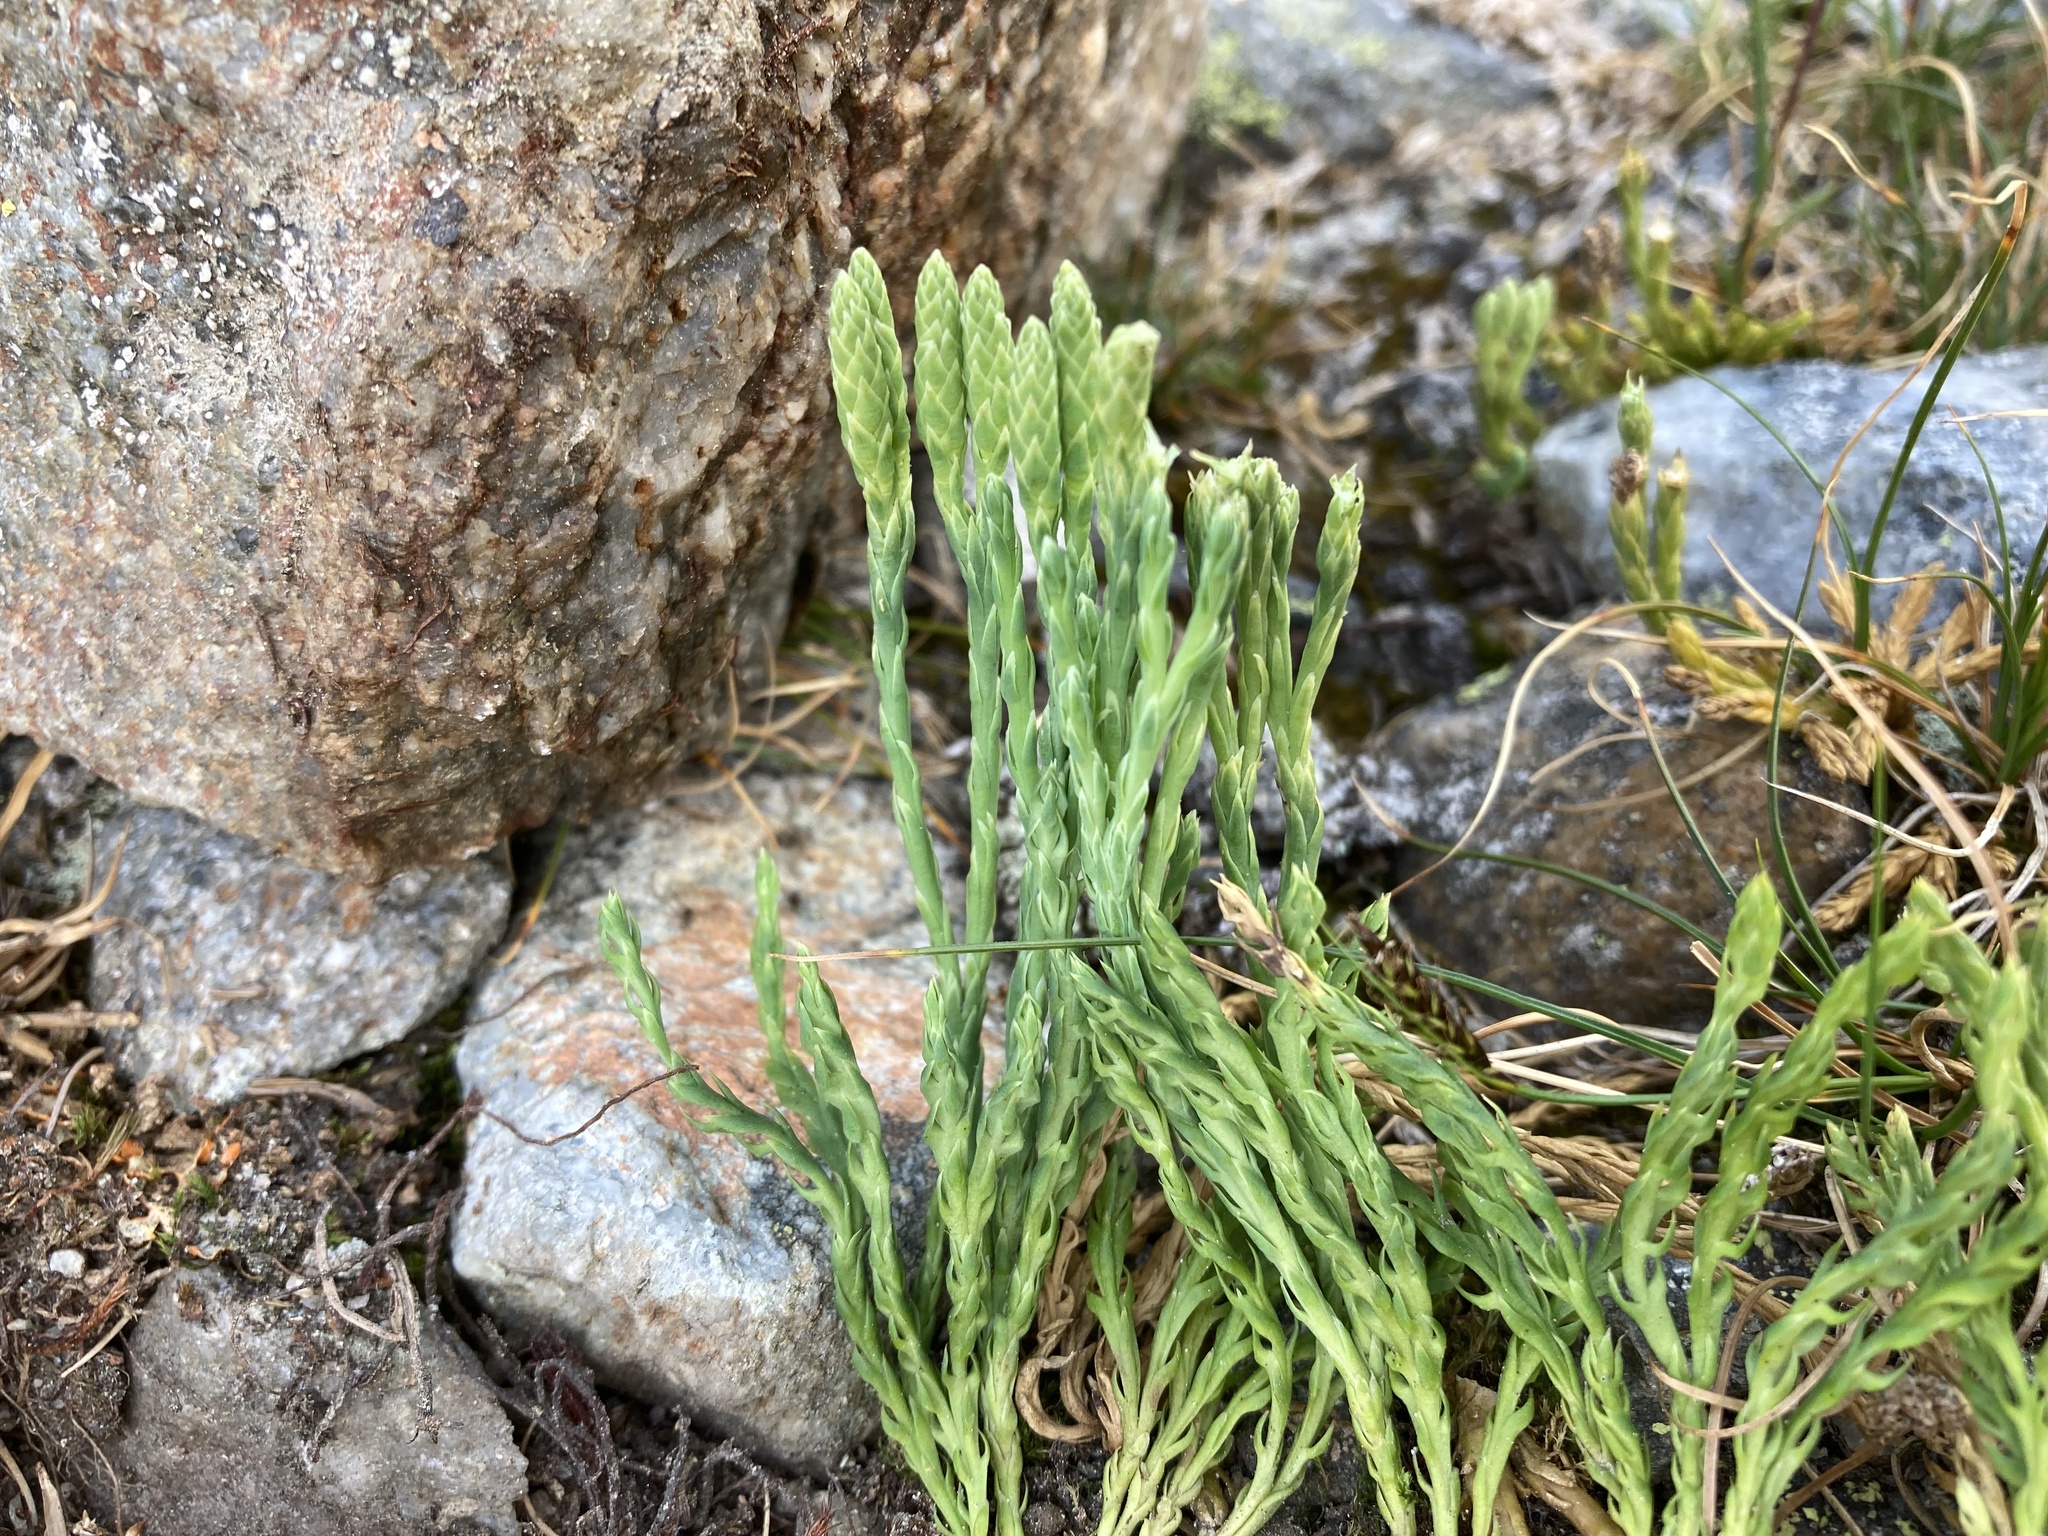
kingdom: Plantae
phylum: Tracheophyta
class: Lycopodiopsida
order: Lycopodiales
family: Lycopodiaceae
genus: Diphasiastrum
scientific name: Diphasiastrum sitchense
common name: Alaska clubmoss
